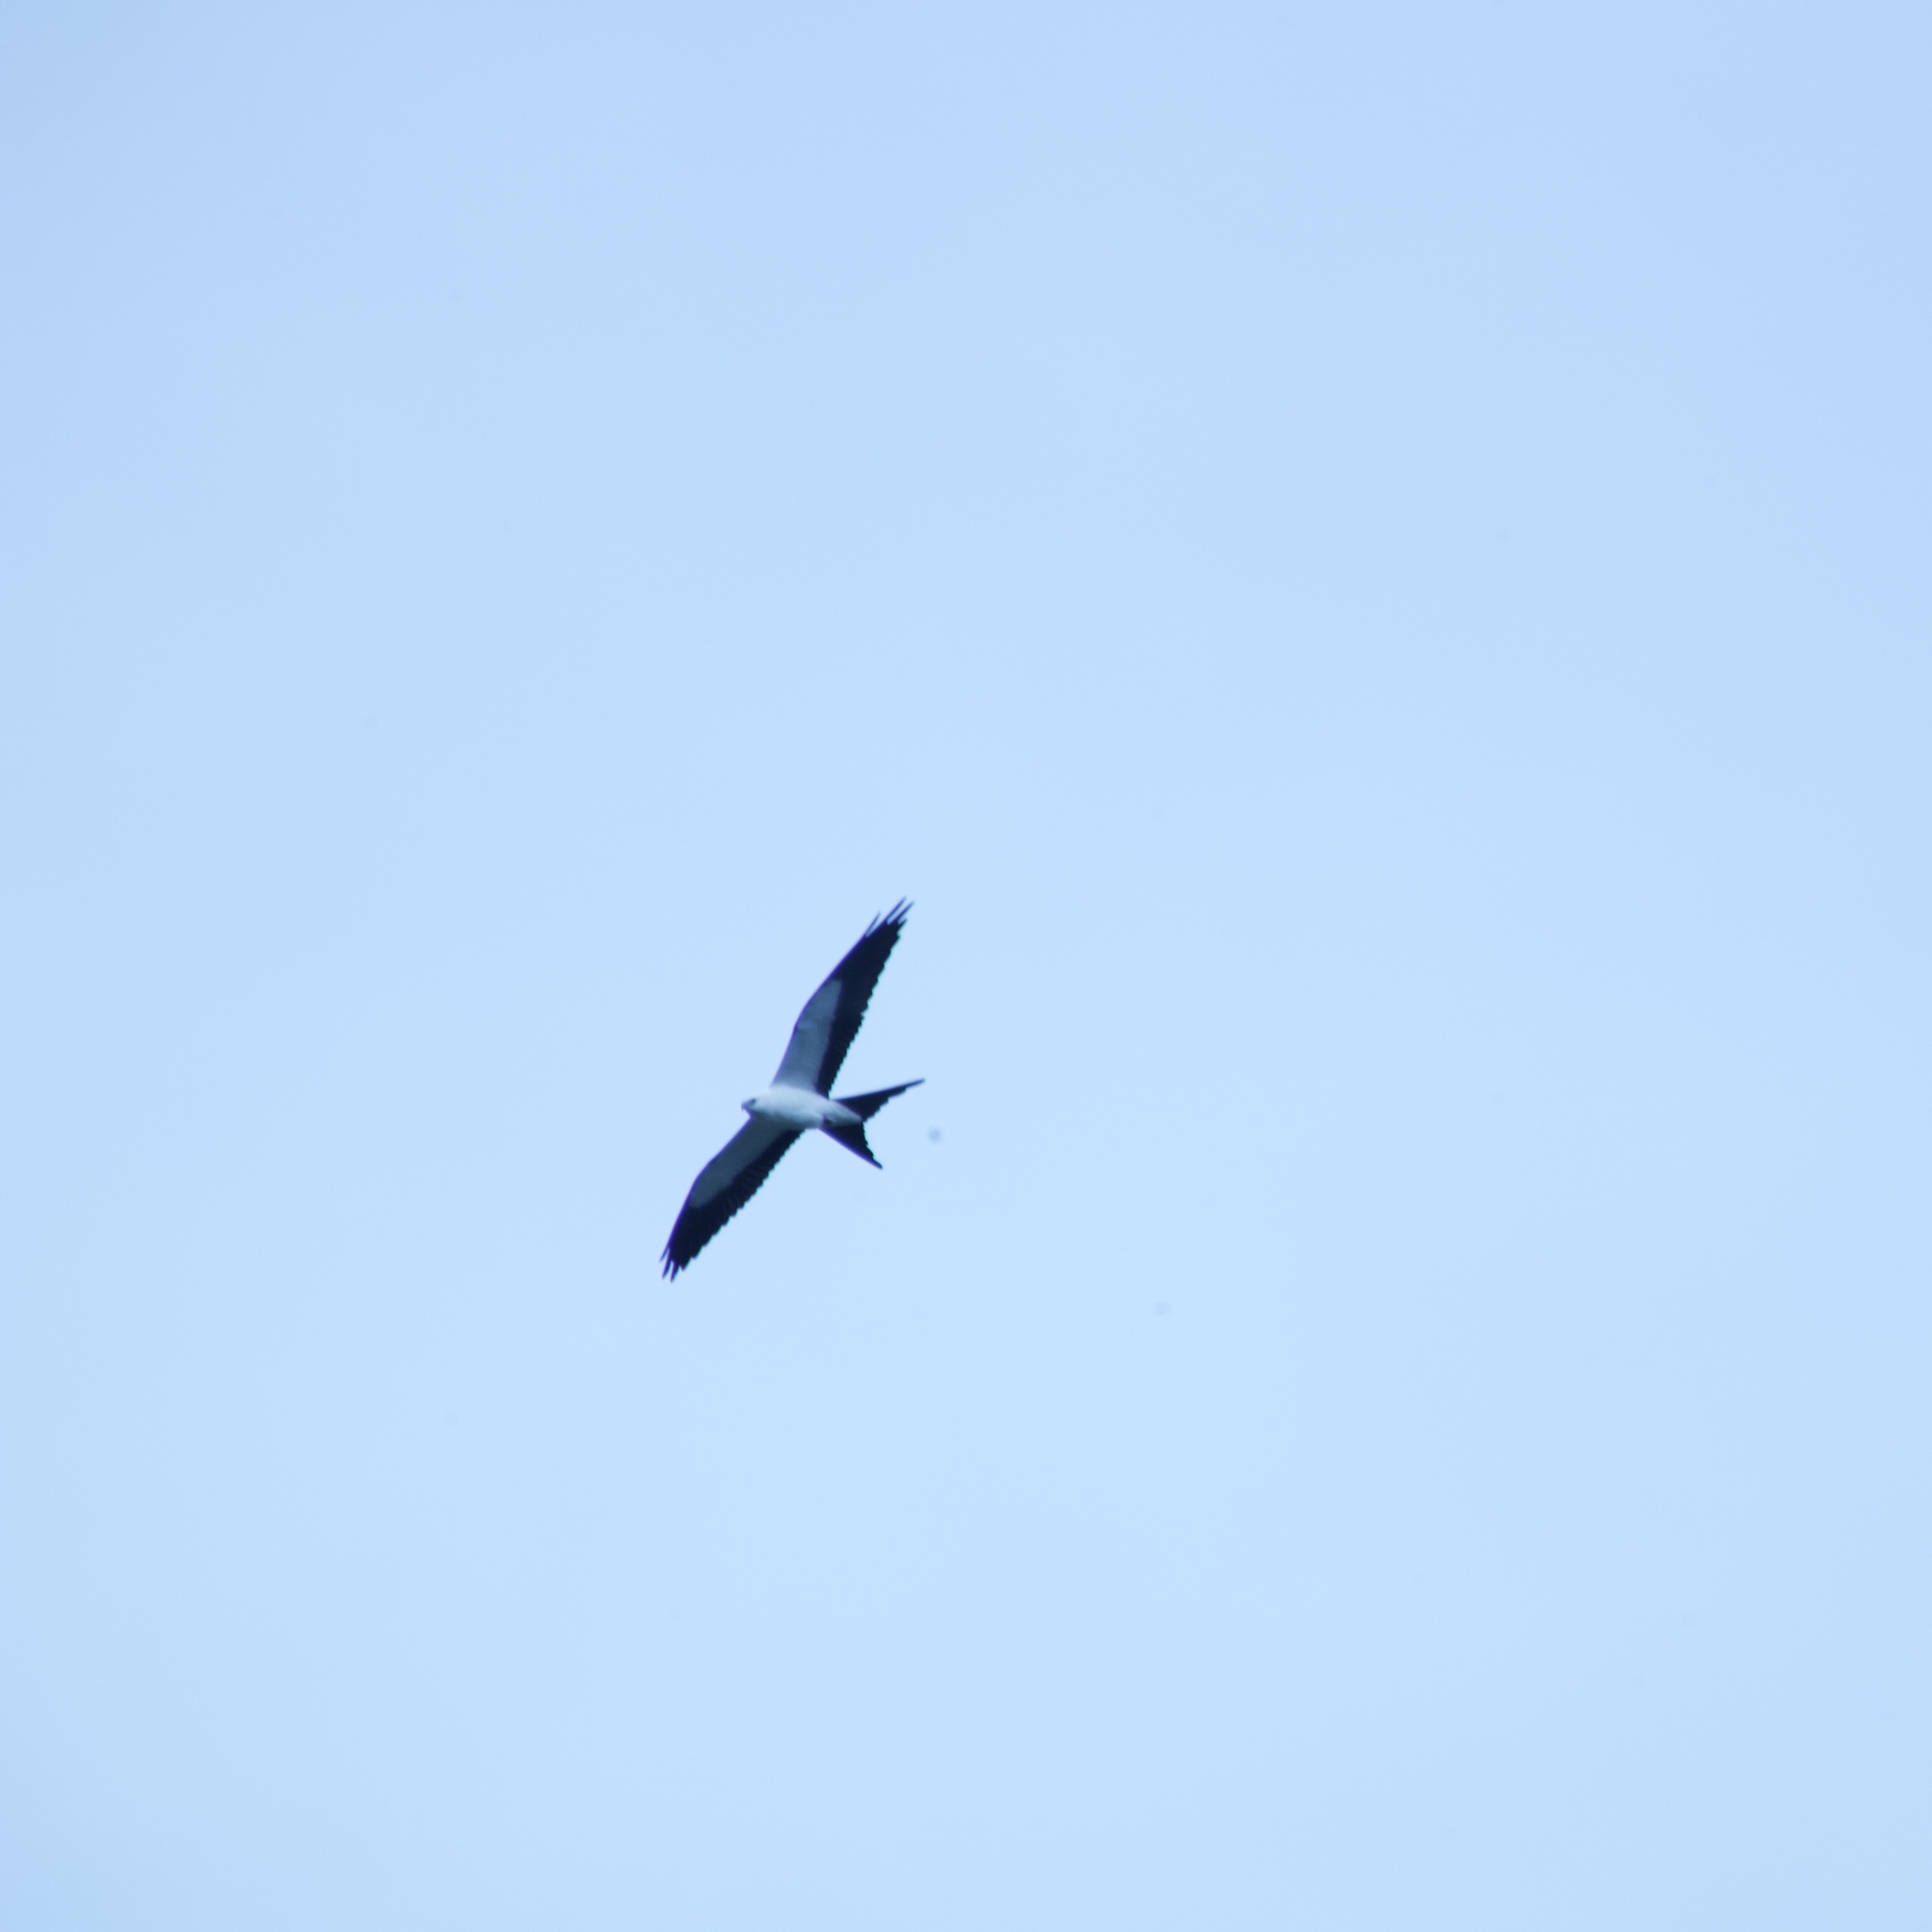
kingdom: Animalia
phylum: Chordata
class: Aves
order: Accipitriformes
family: Accipitridae
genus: Elanoides
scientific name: Elanoides forficatus
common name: Swallow-tailed kite
